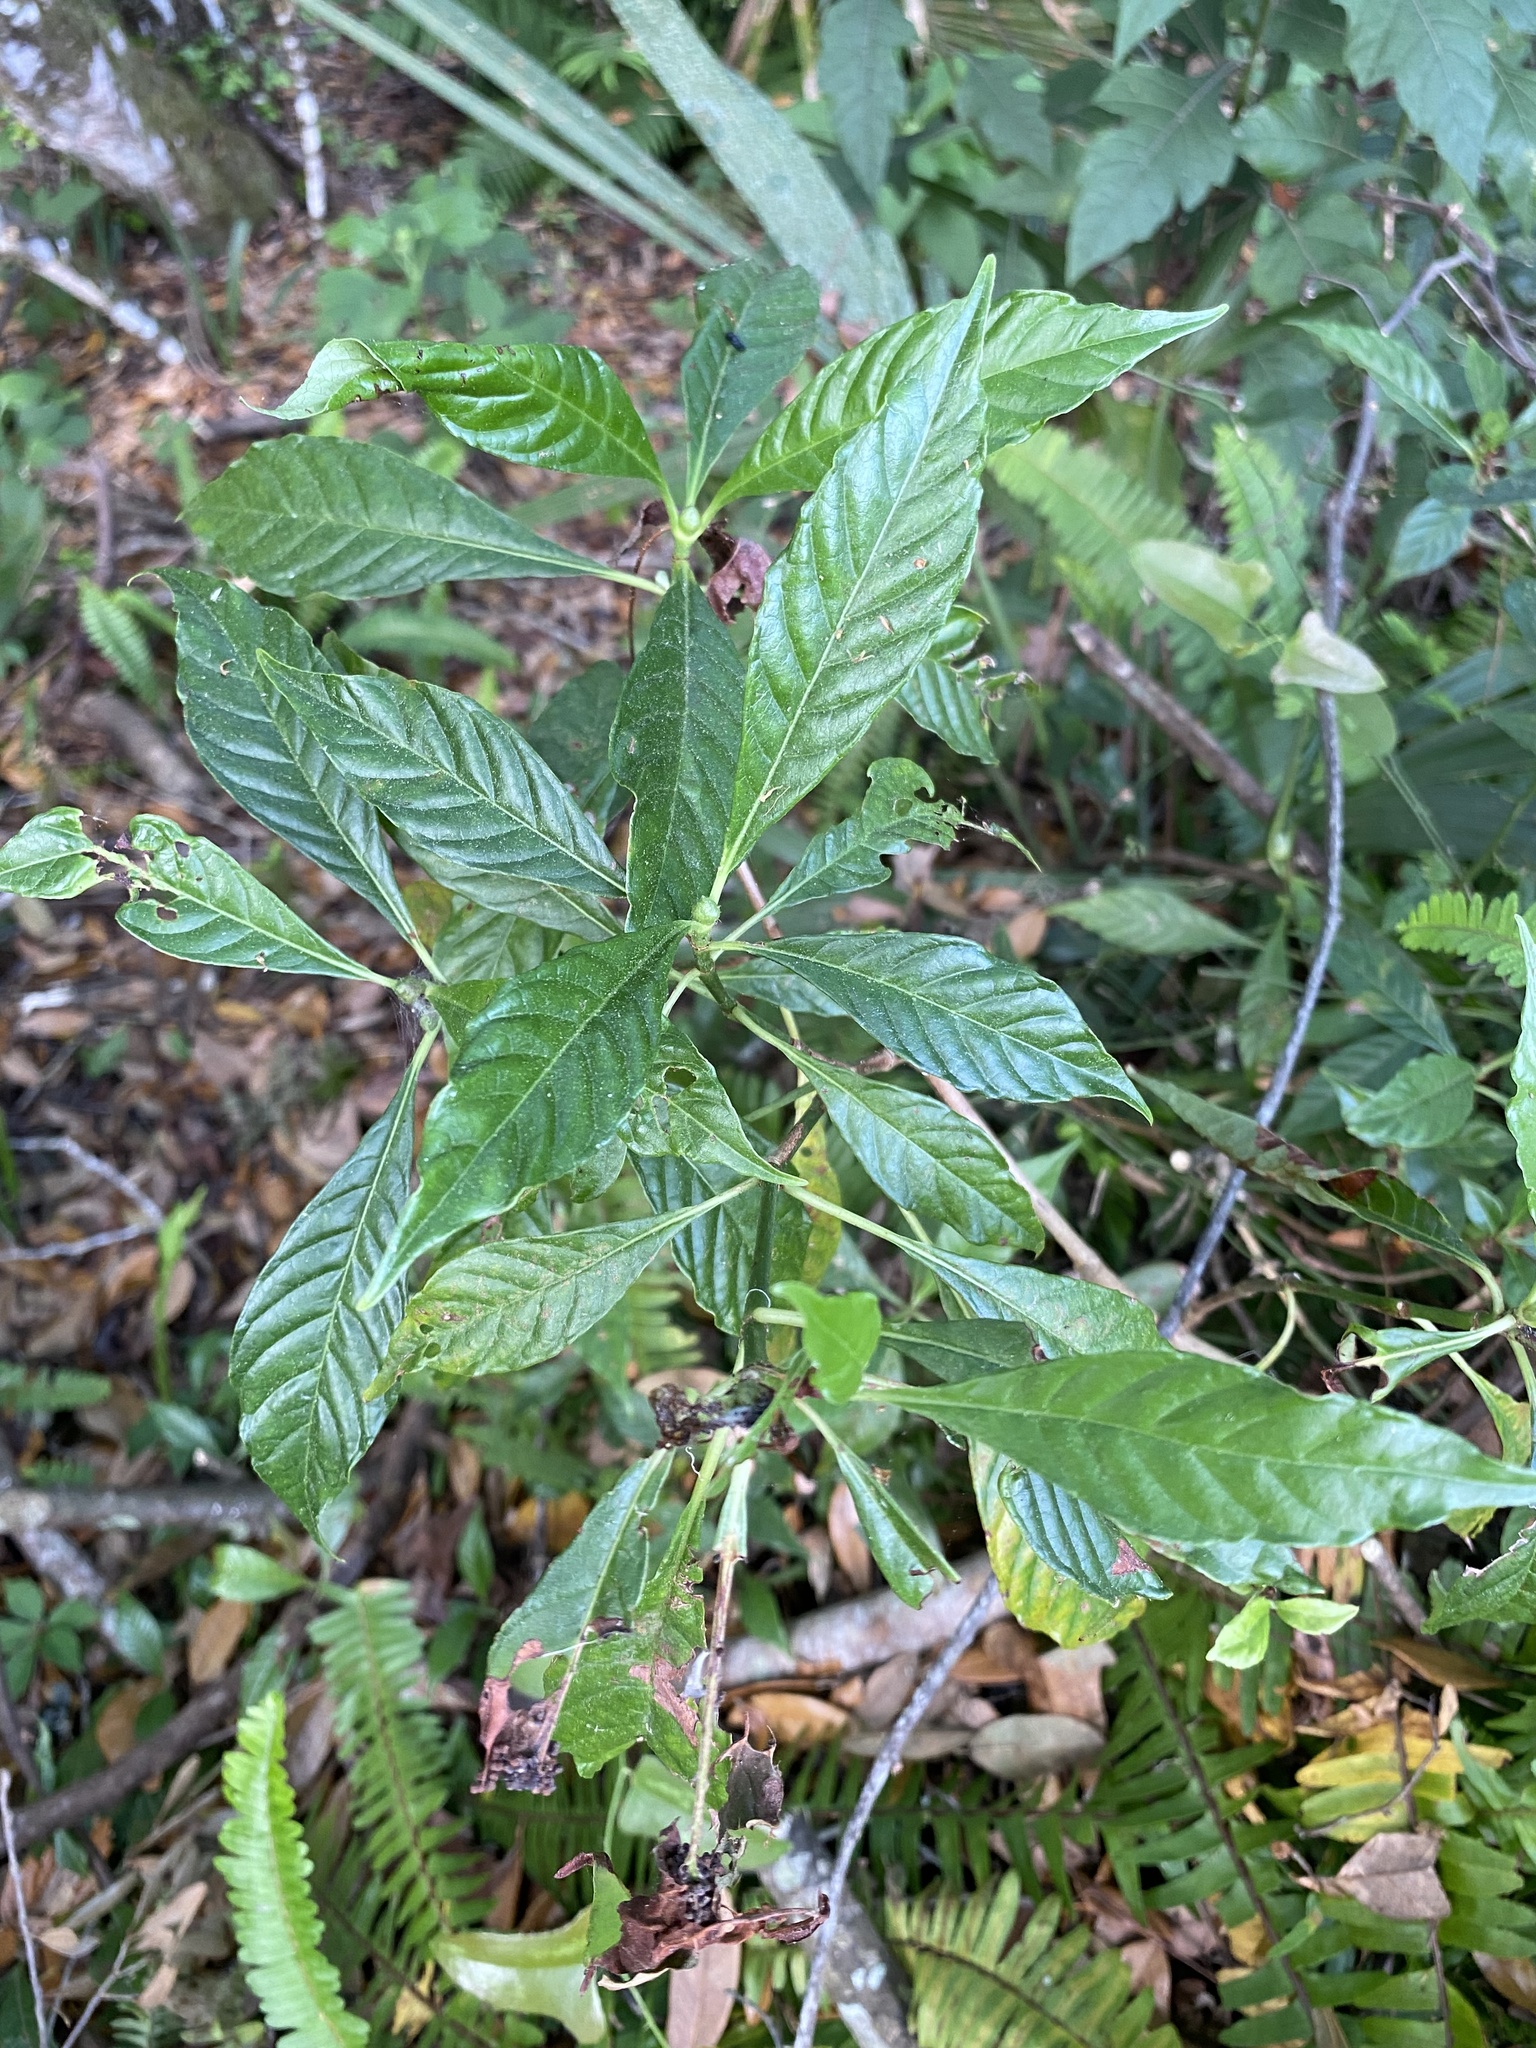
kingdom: Plantae
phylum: Tracheophyta
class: Magnoliopsida
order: Gentianales
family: Rubiaceae
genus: Psychotria
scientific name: Psychotria nervosa
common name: Bastard cankerberry
